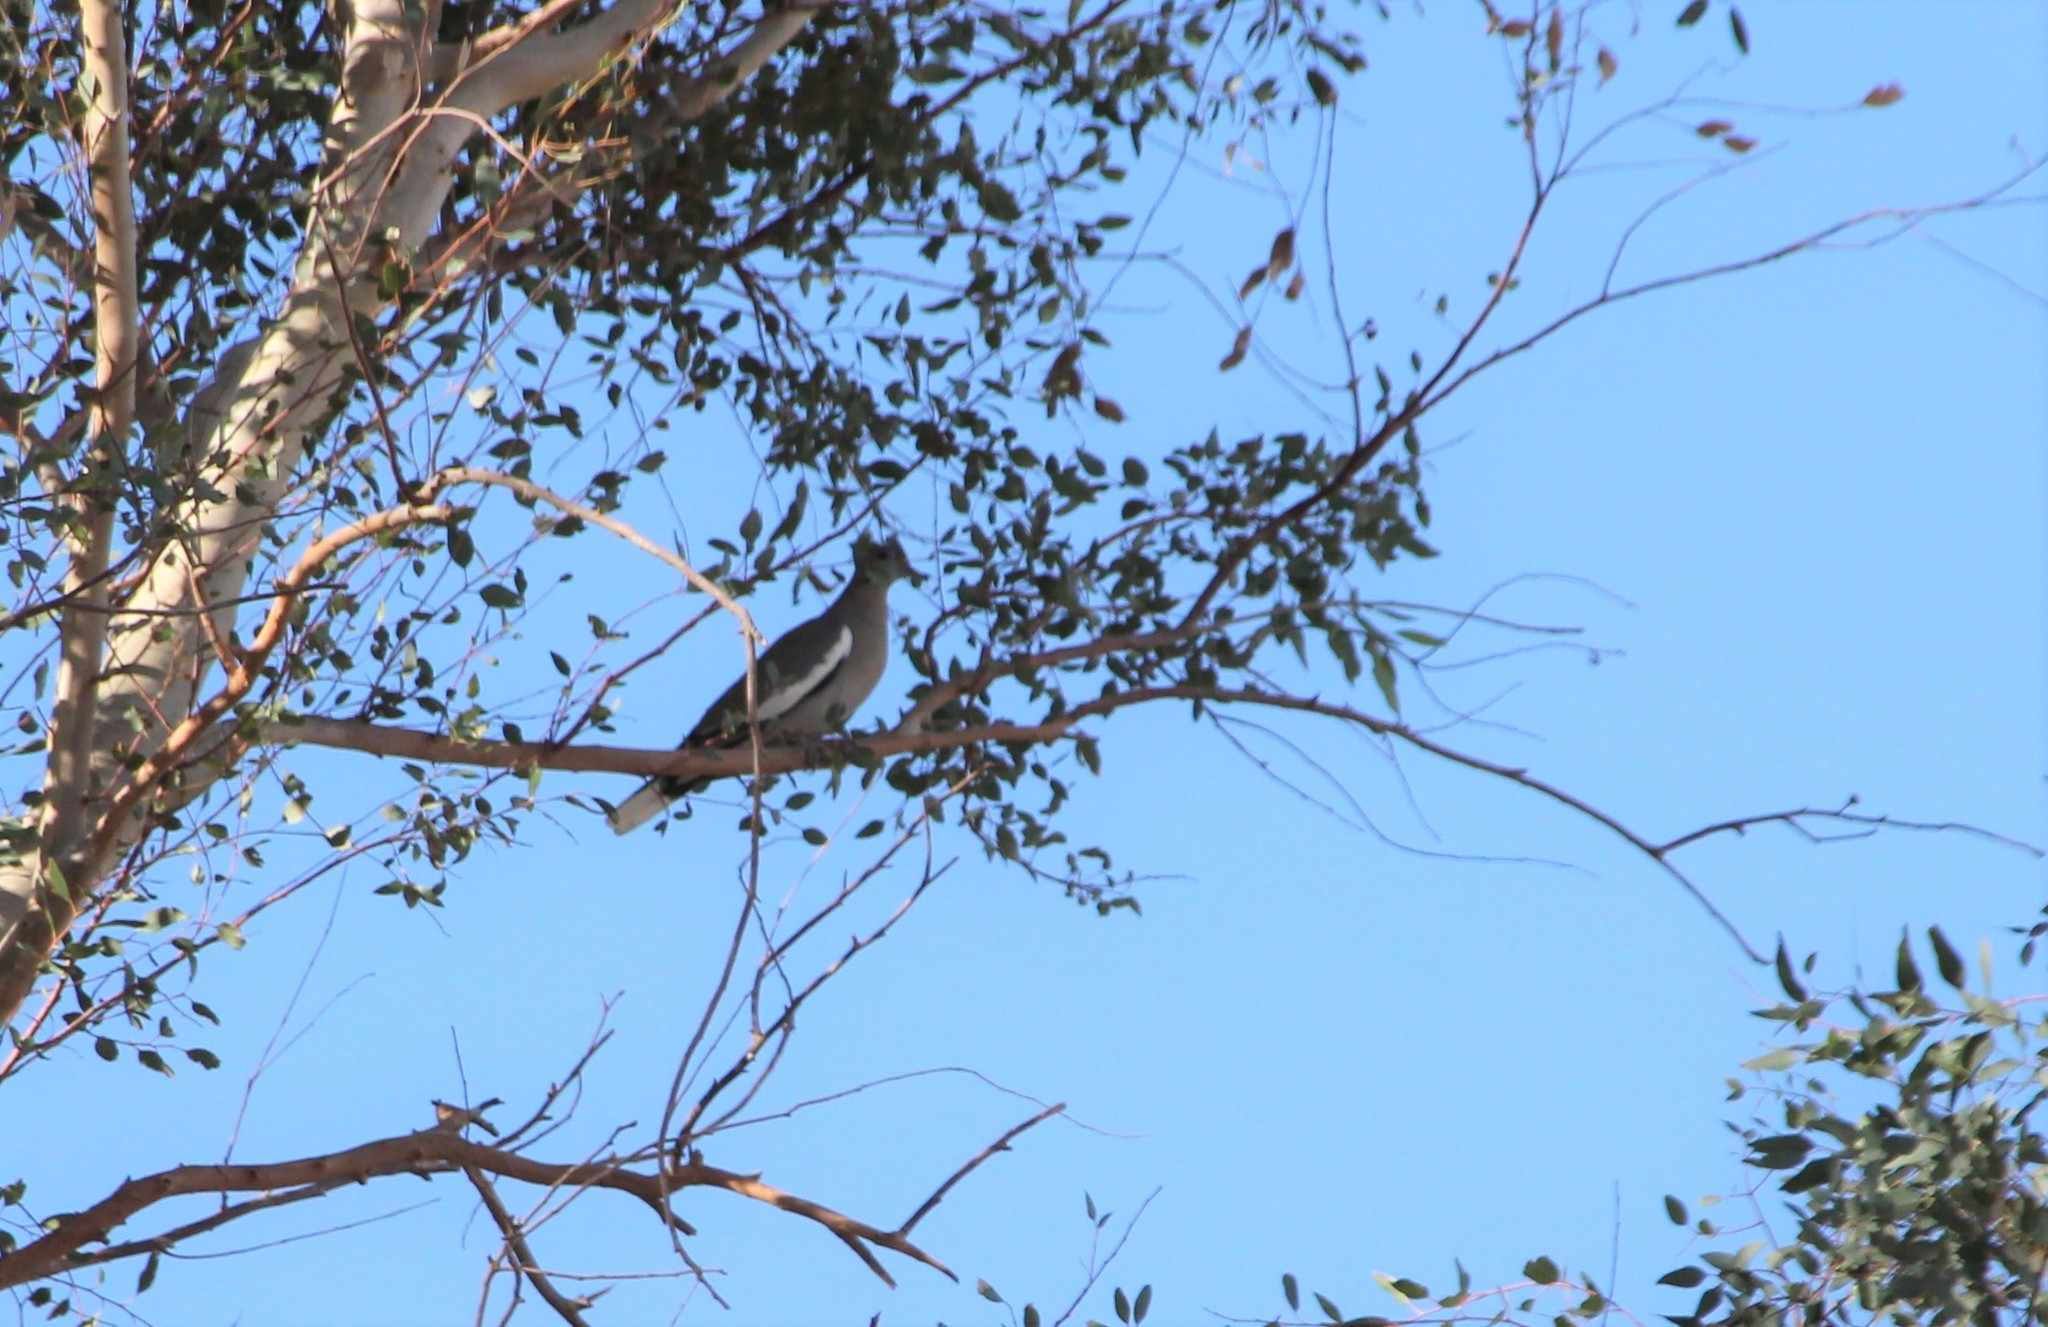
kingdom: Animalia
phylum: Chordata
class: Aves
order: Columbiformes
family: Columbidae
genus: Zenaida
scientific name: Zenaida asiatica
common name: White-winged dove
